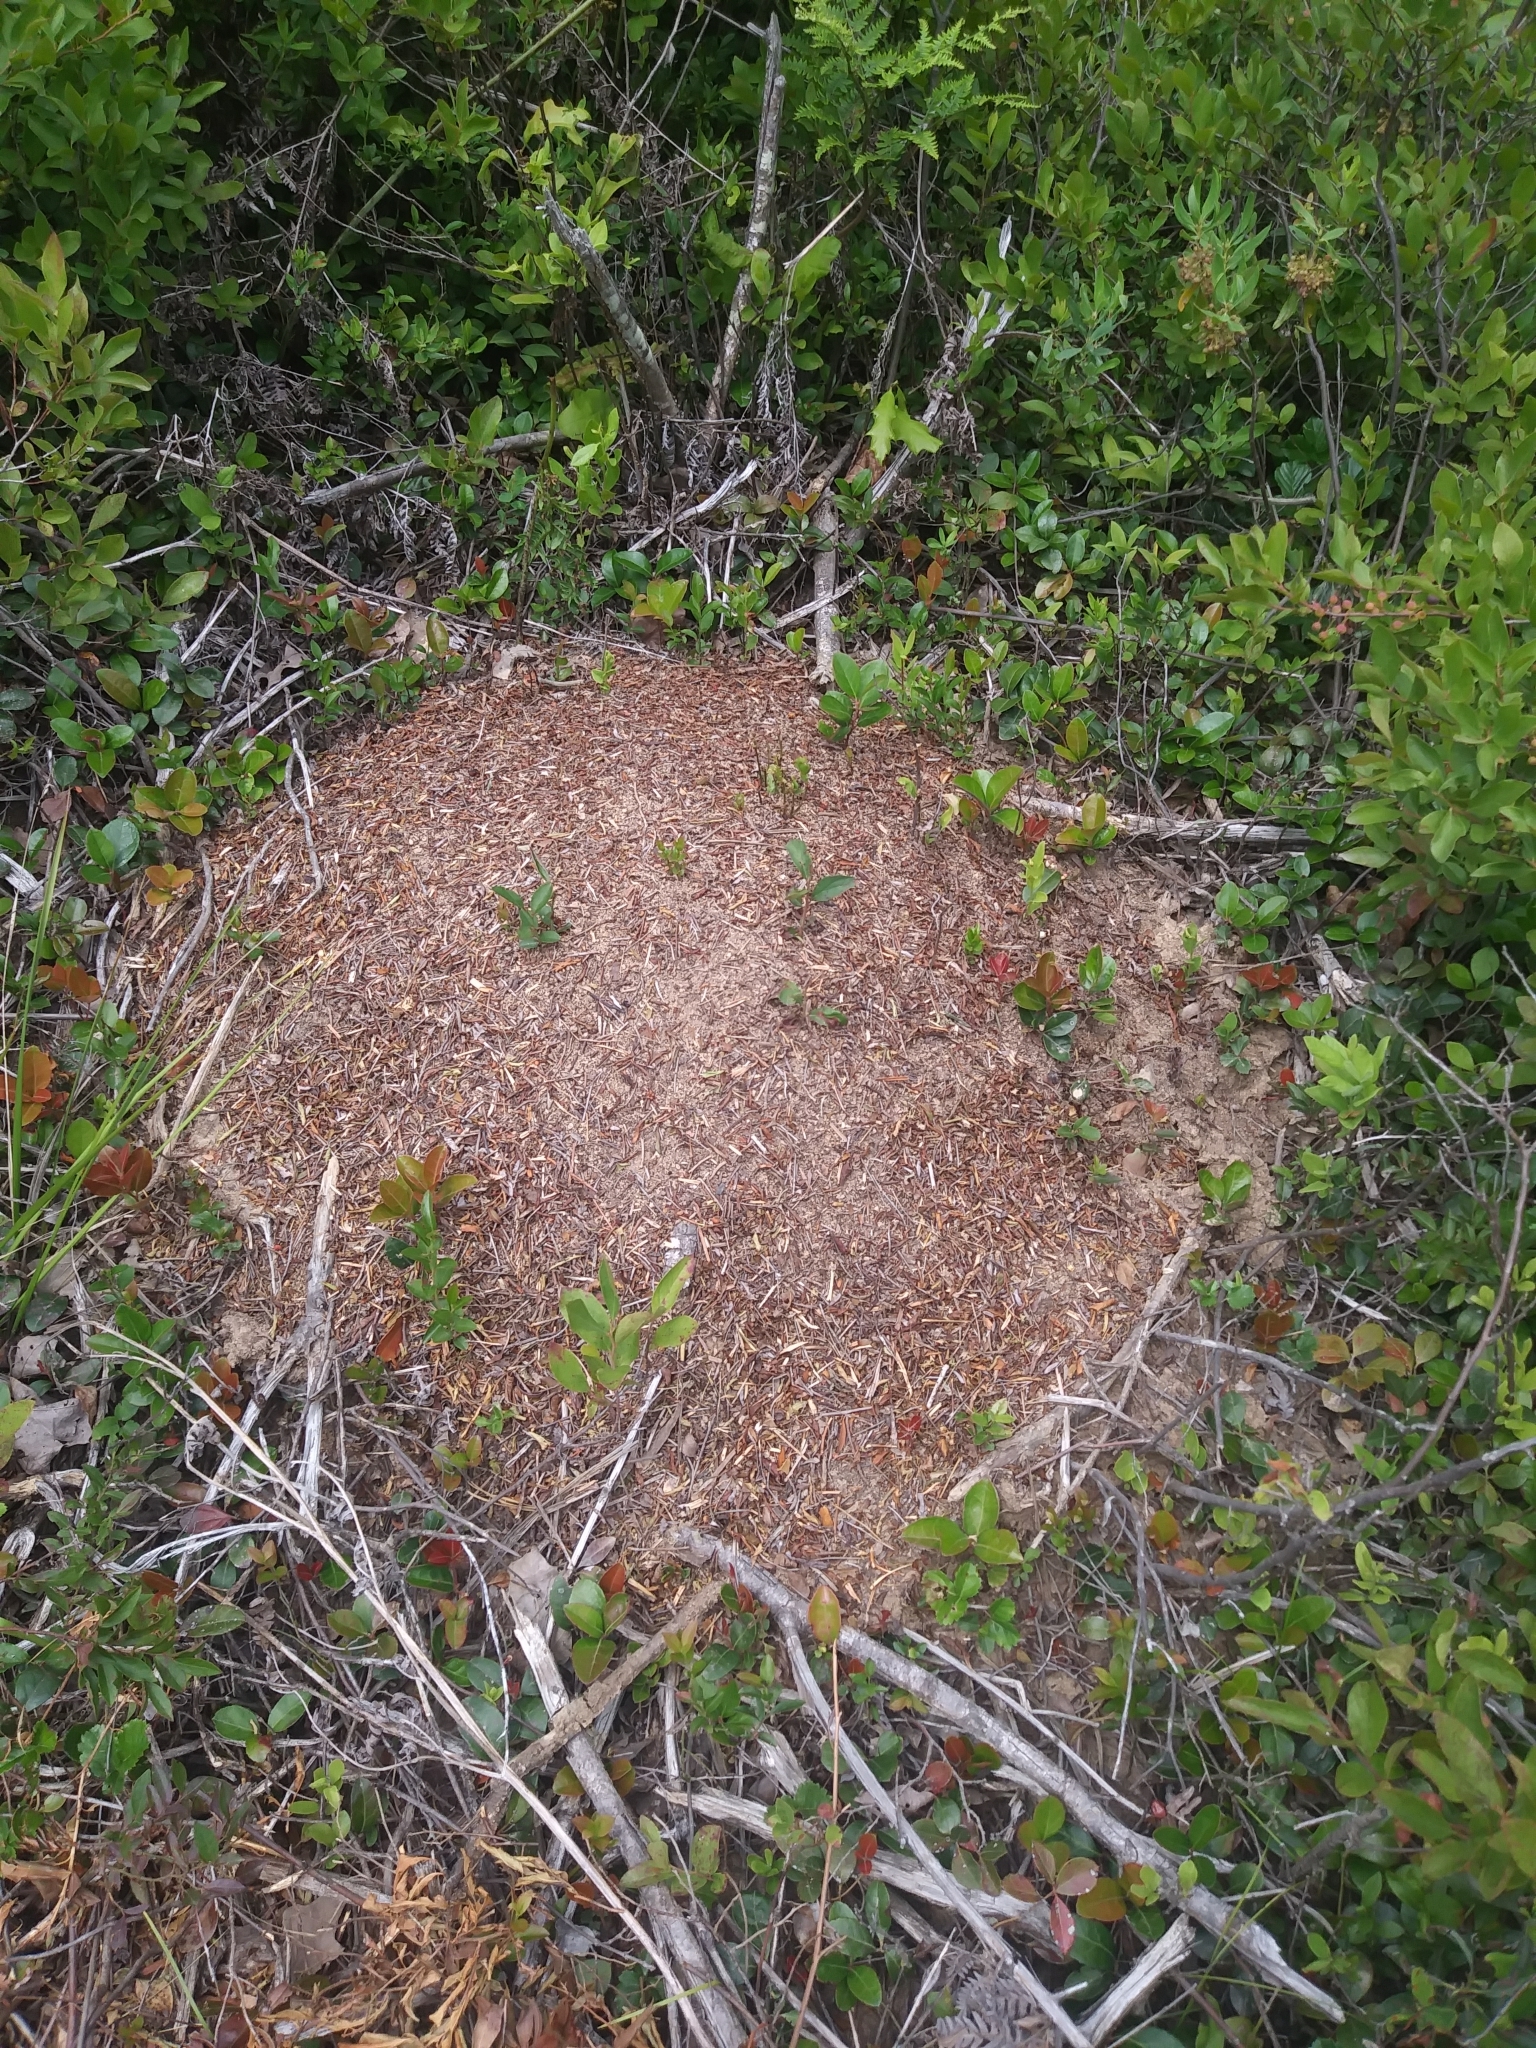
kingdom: Animalia
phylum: Arthropoda
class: Insecta
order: Hymenoptera
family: Formicidae
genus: Formica
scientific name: Formica exsectoides
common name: Allegheny mound ant
